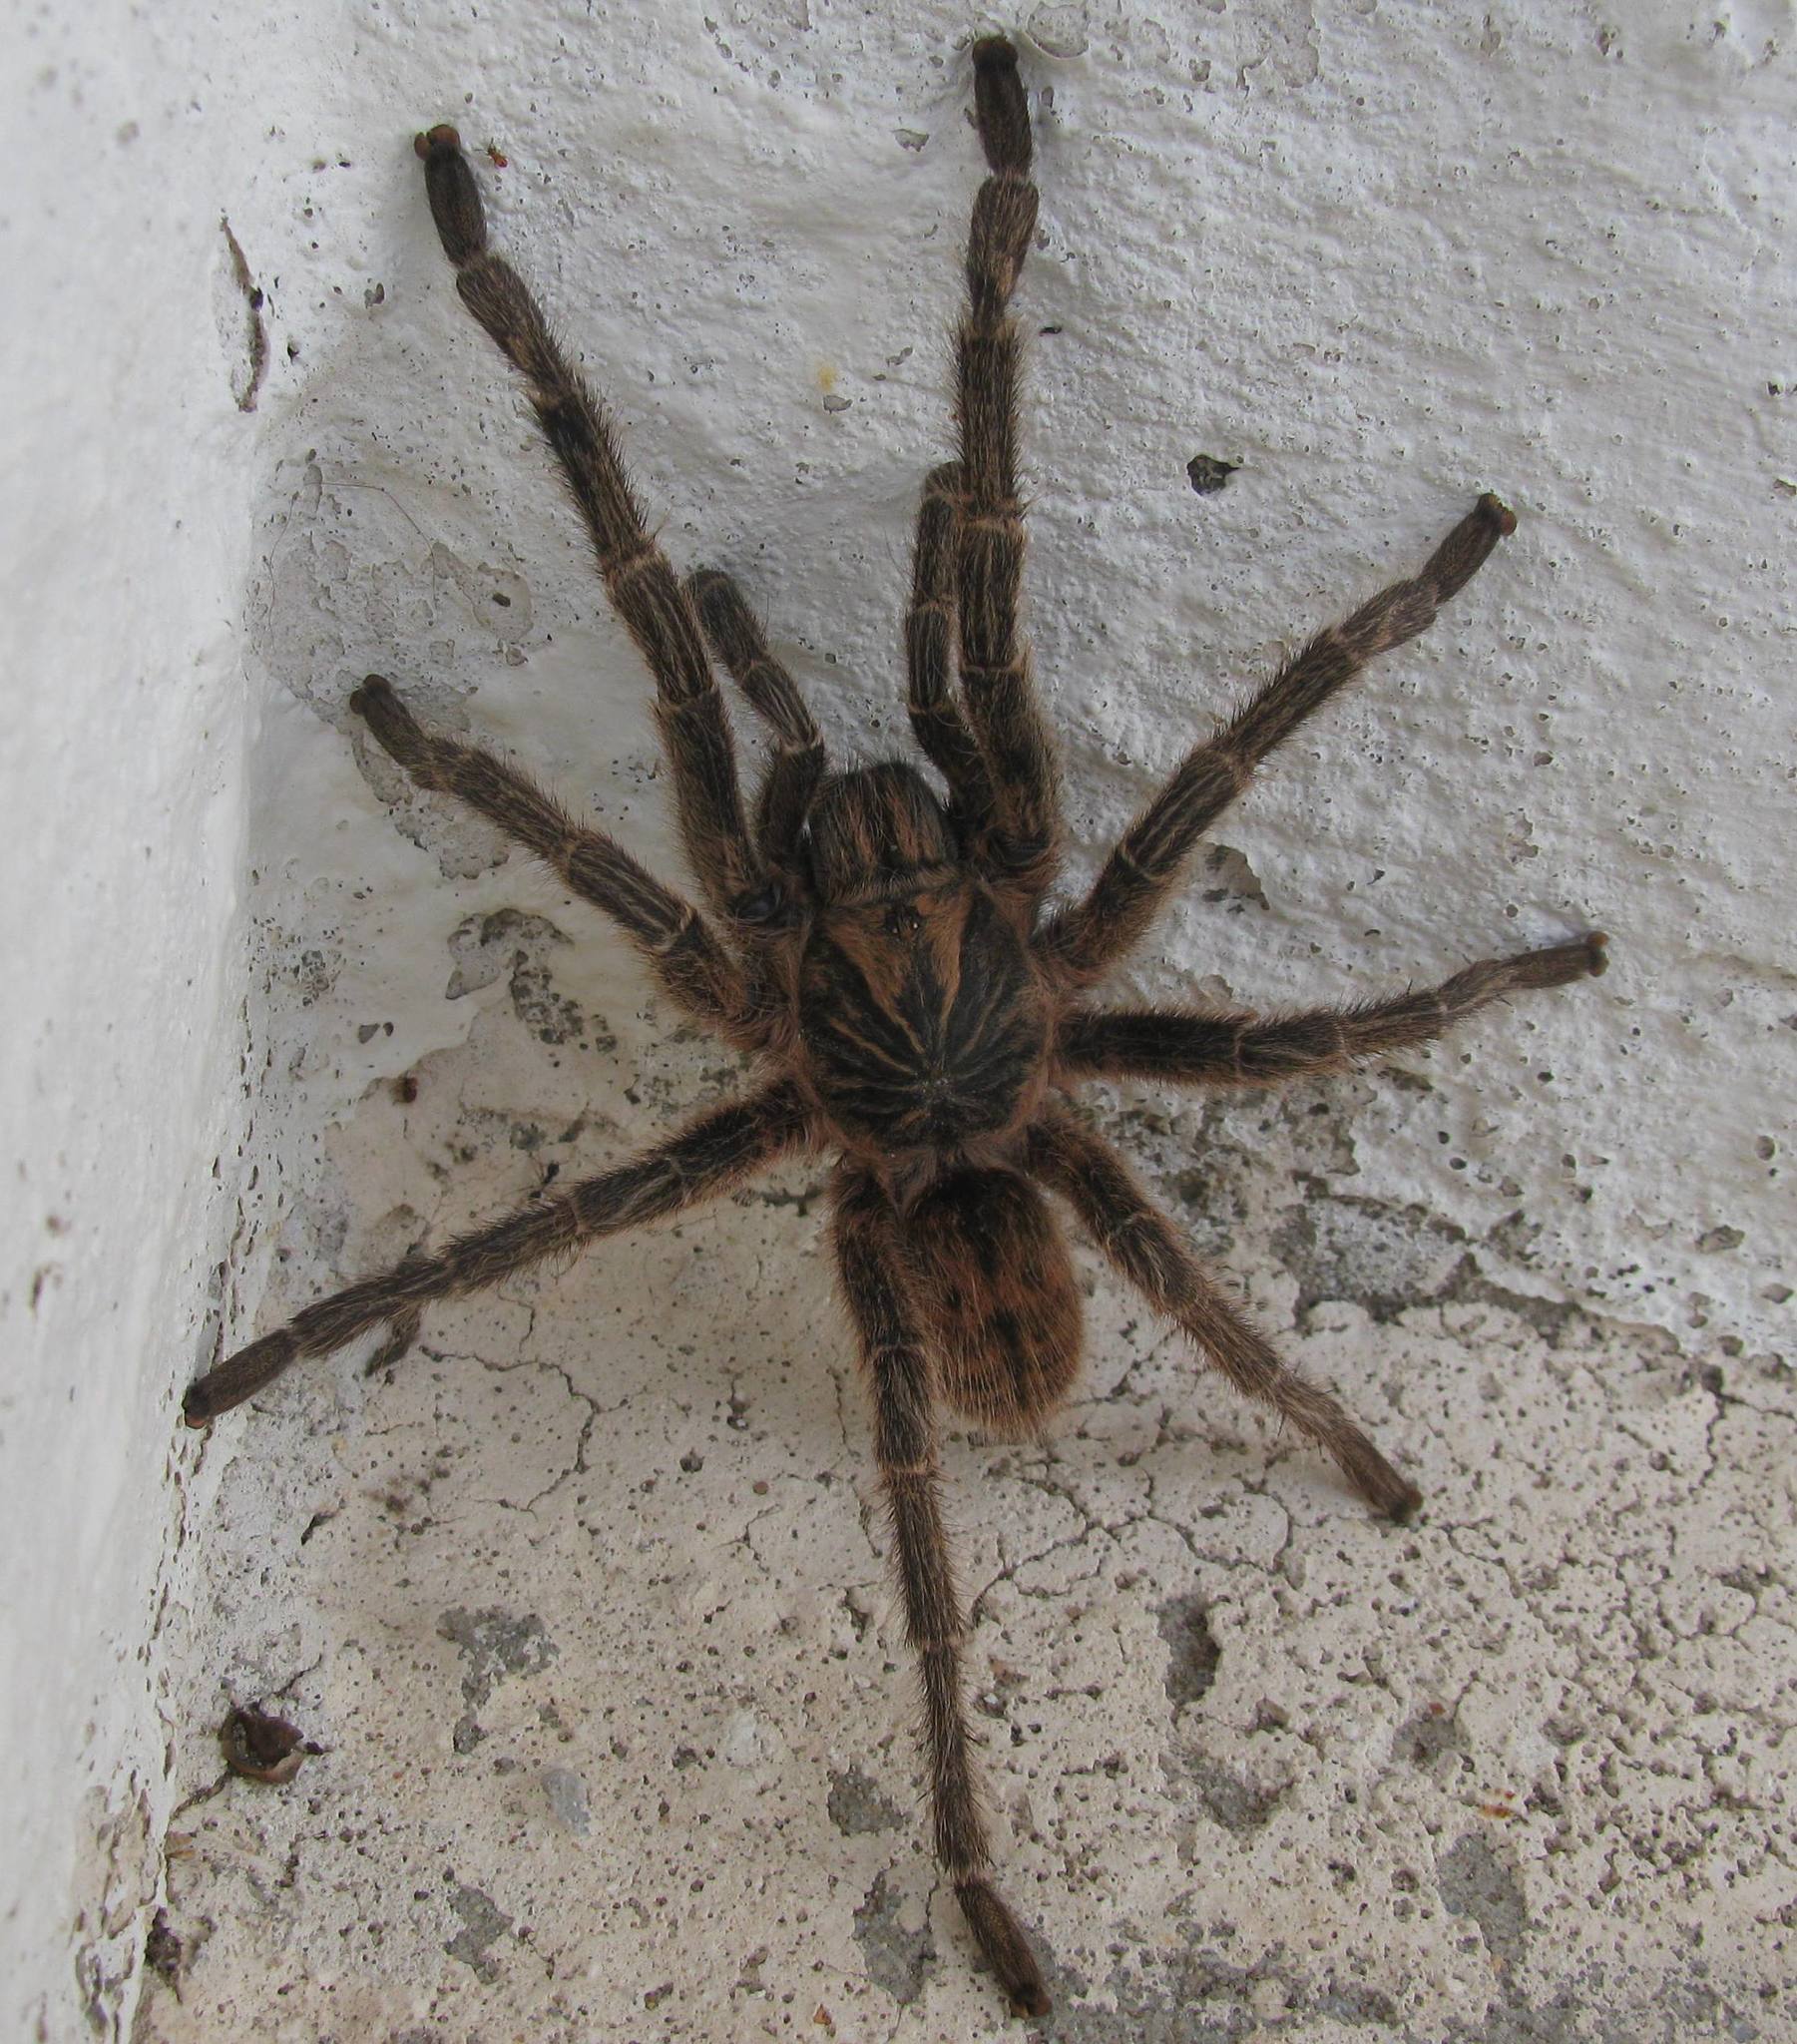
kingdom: Animalia
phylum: Arthropoda
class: Arachnida
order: Araneae
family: Theraphosidae
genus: Harpactira
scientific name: Harpactira cafreriana
